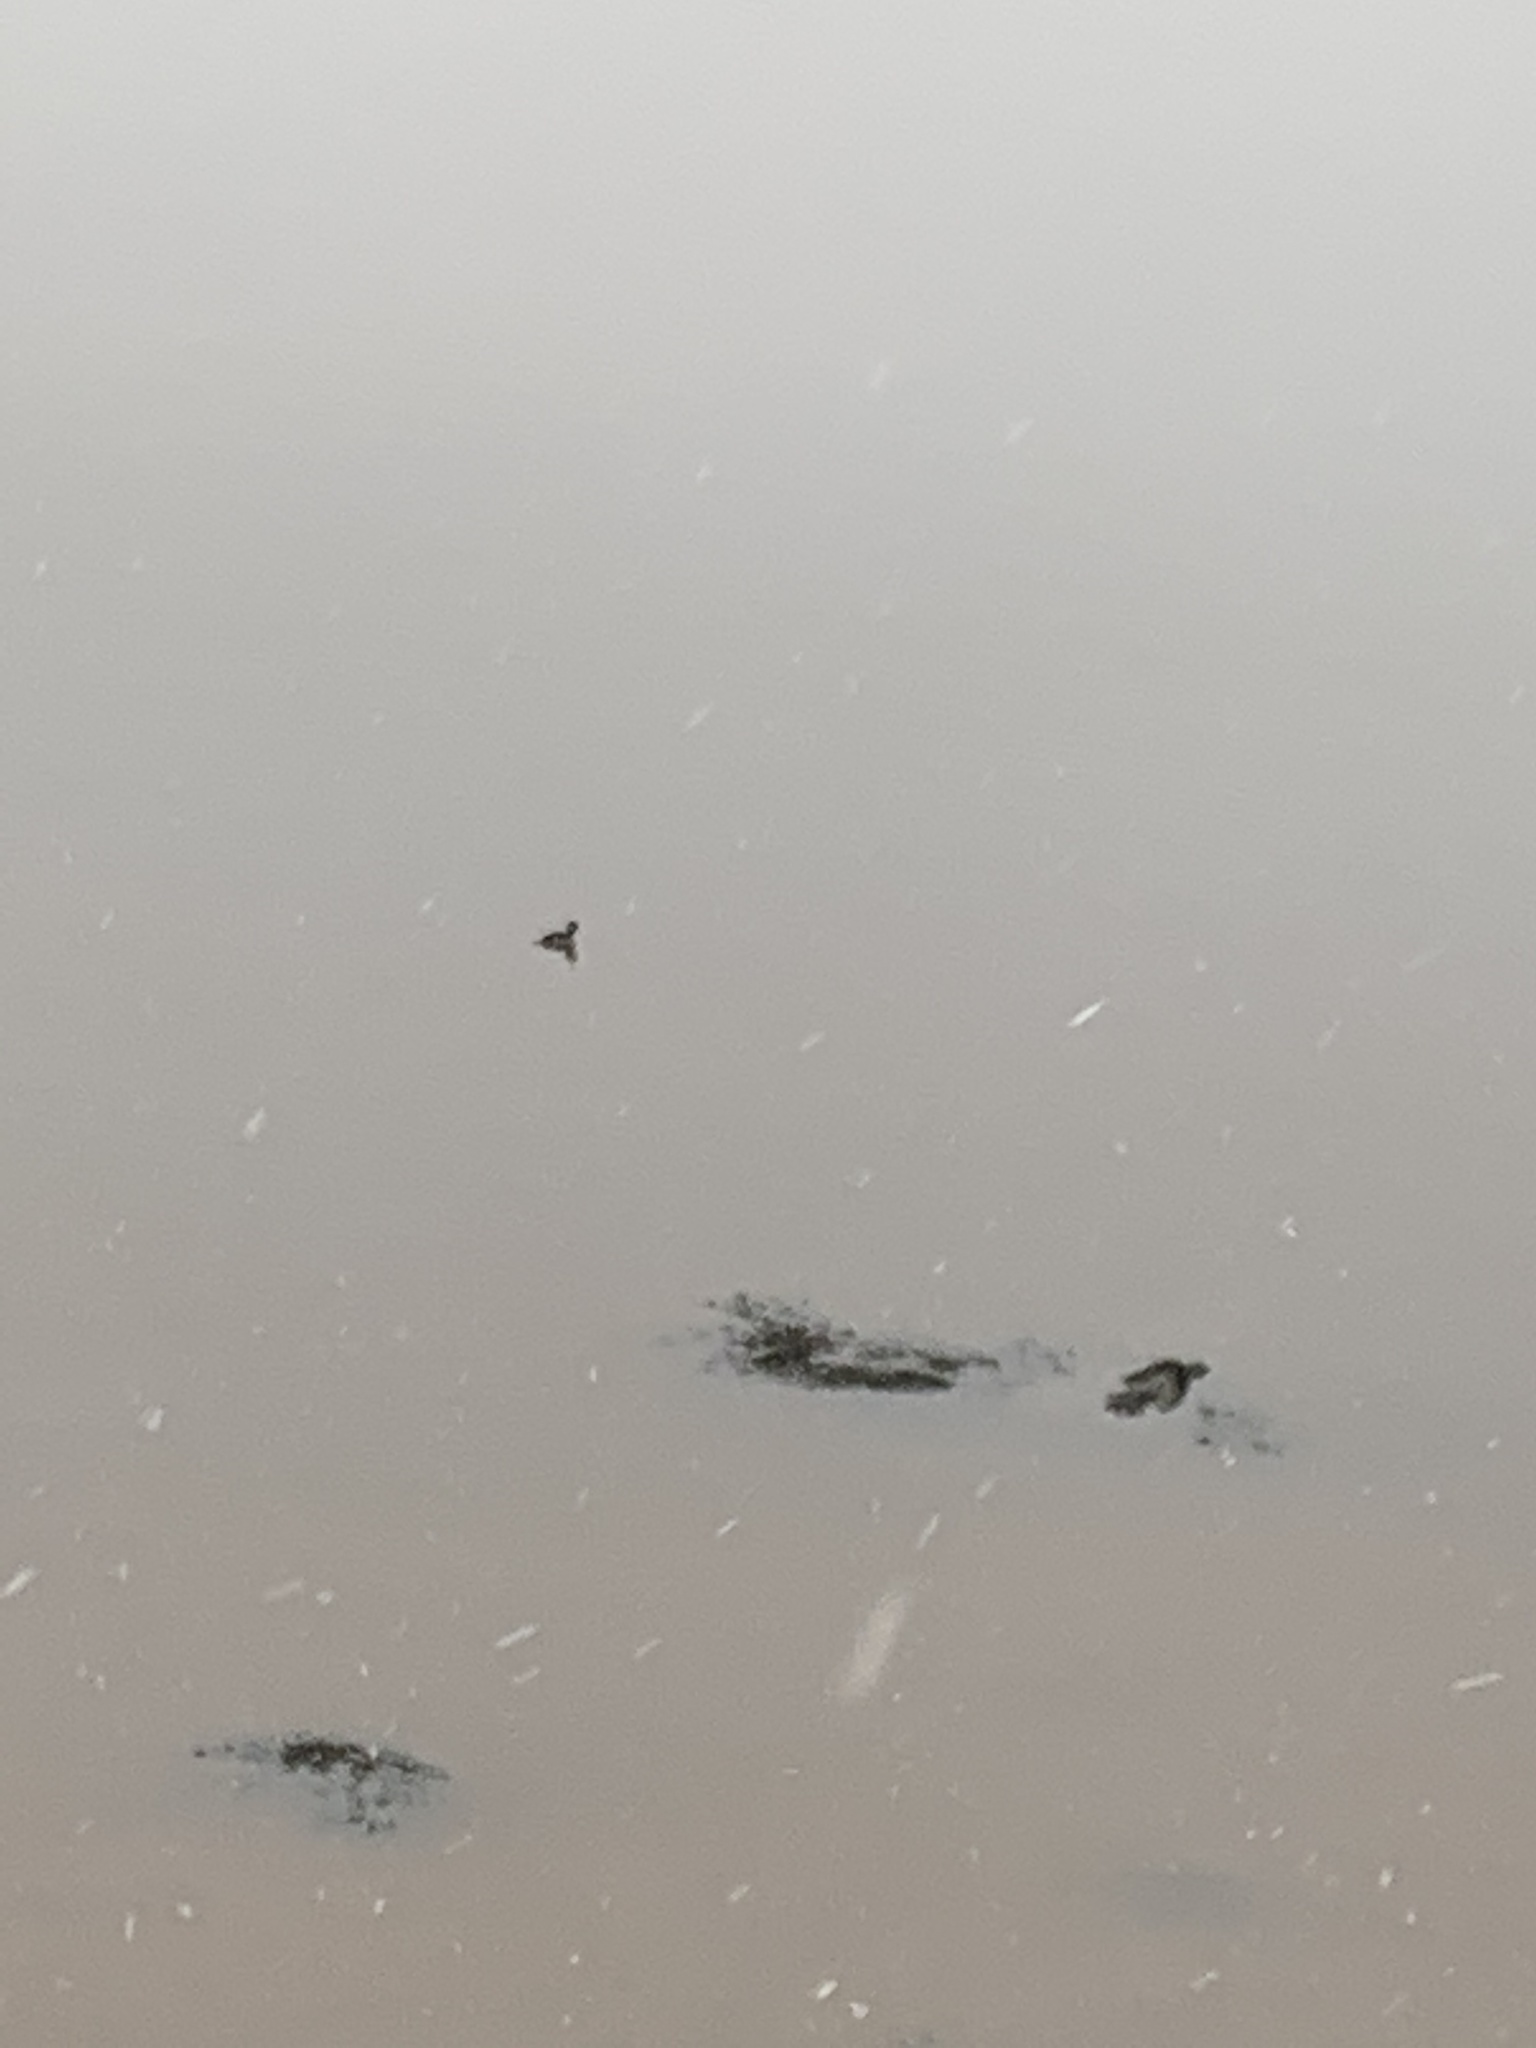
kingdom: Animalia
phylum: Chordata
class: Aves
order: Anseriformes
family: Anatidae
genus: Bucephala
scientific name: Bucephala albeola
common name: Bufflehead
